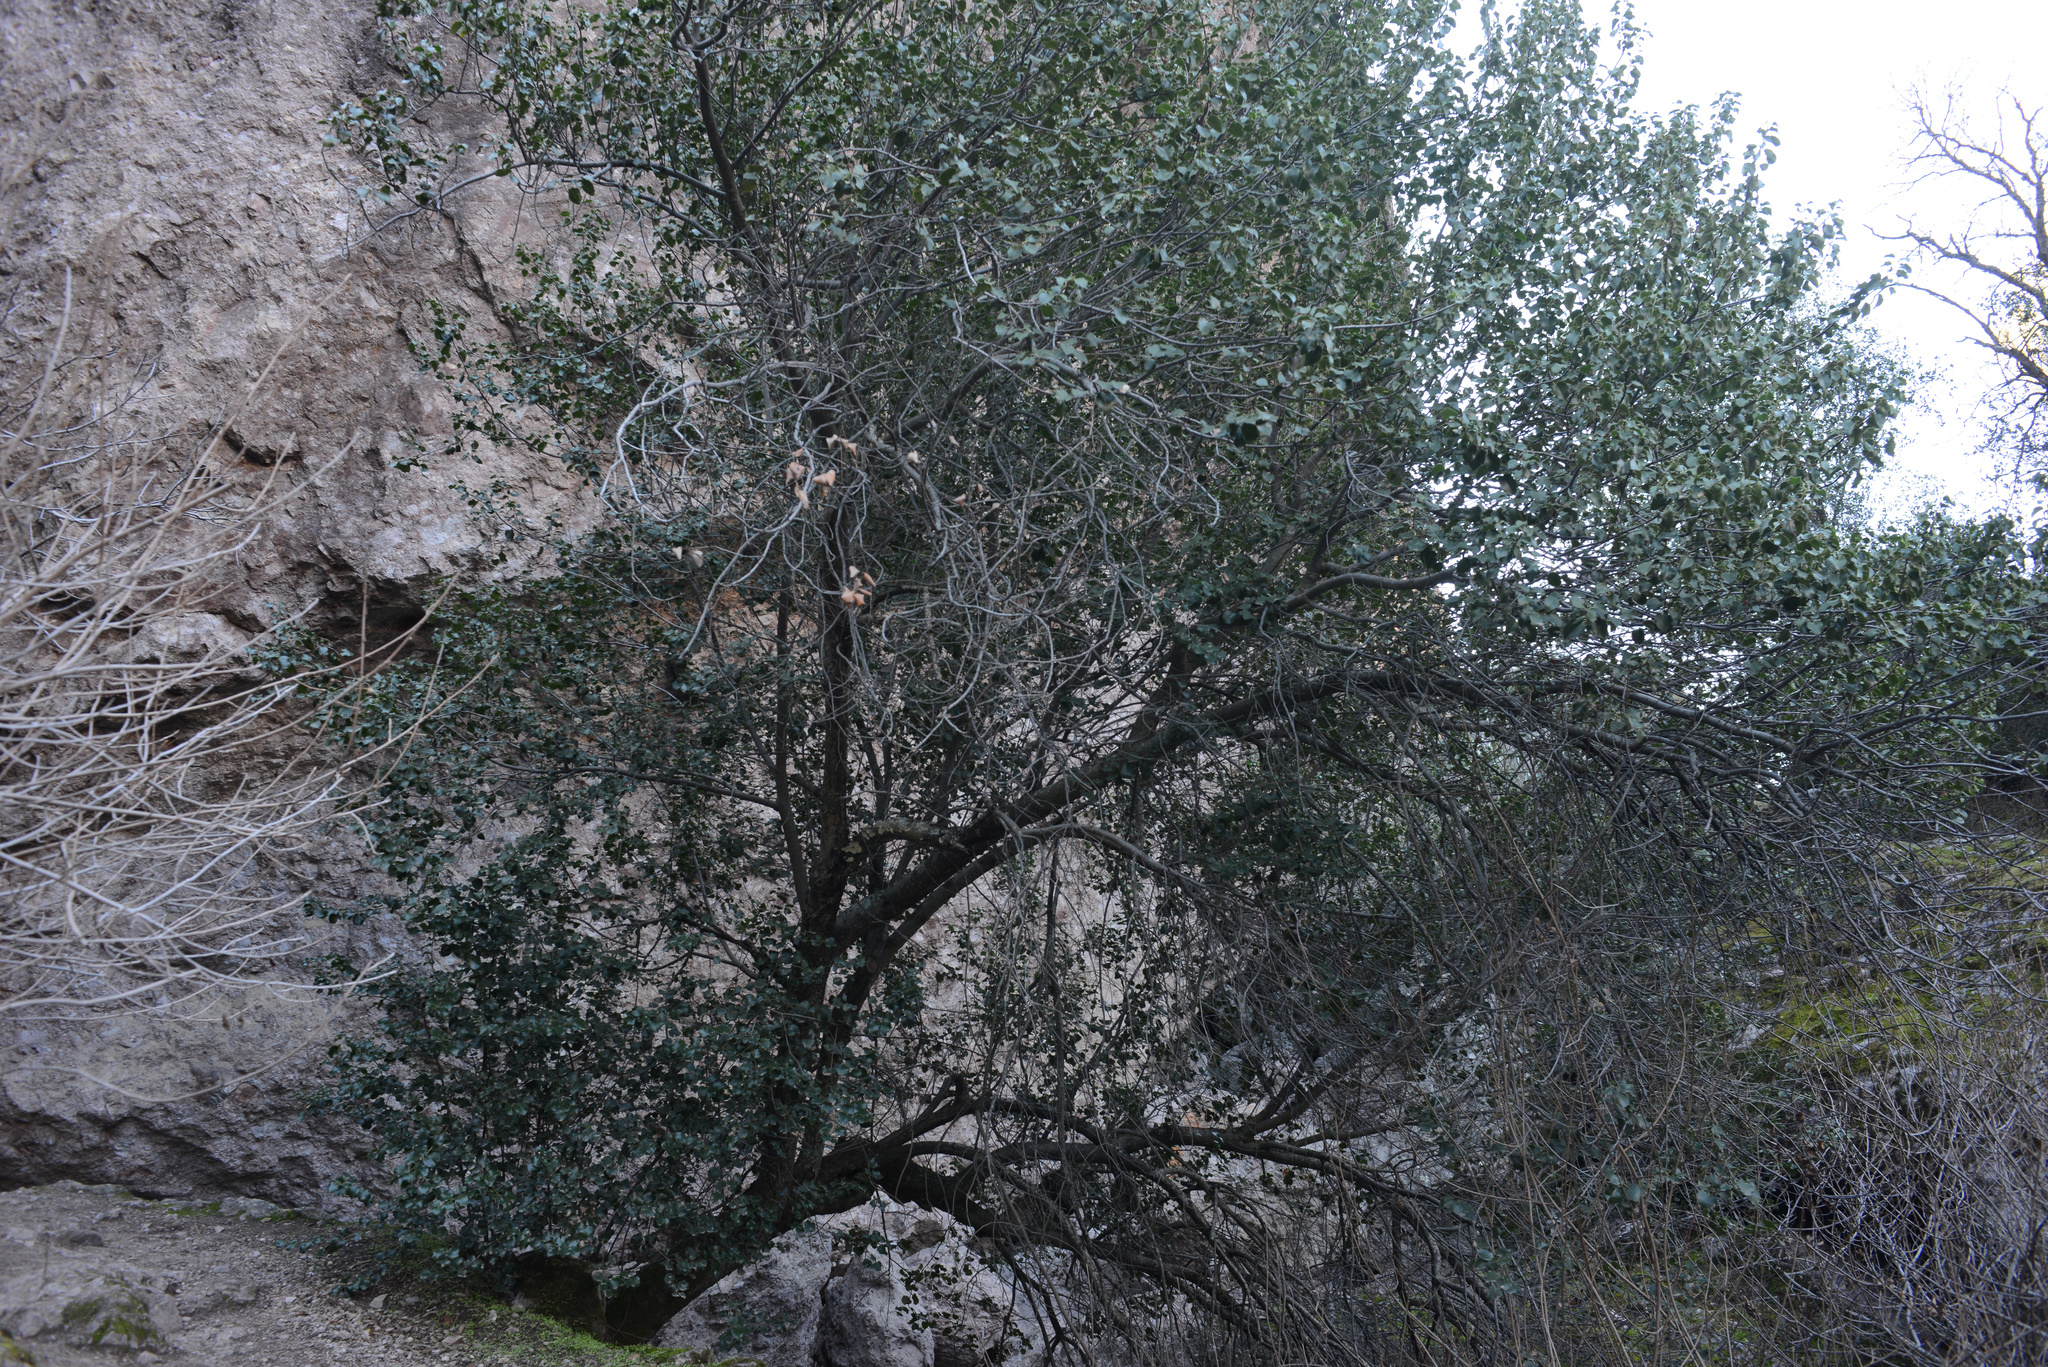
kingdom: Plantae
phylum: Tracheophyta
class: Magnoliopsida
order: Rosales
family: Rosaceae
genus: Prunus
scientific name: Prunus ilicifolia
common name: Hollyleaf cherry
